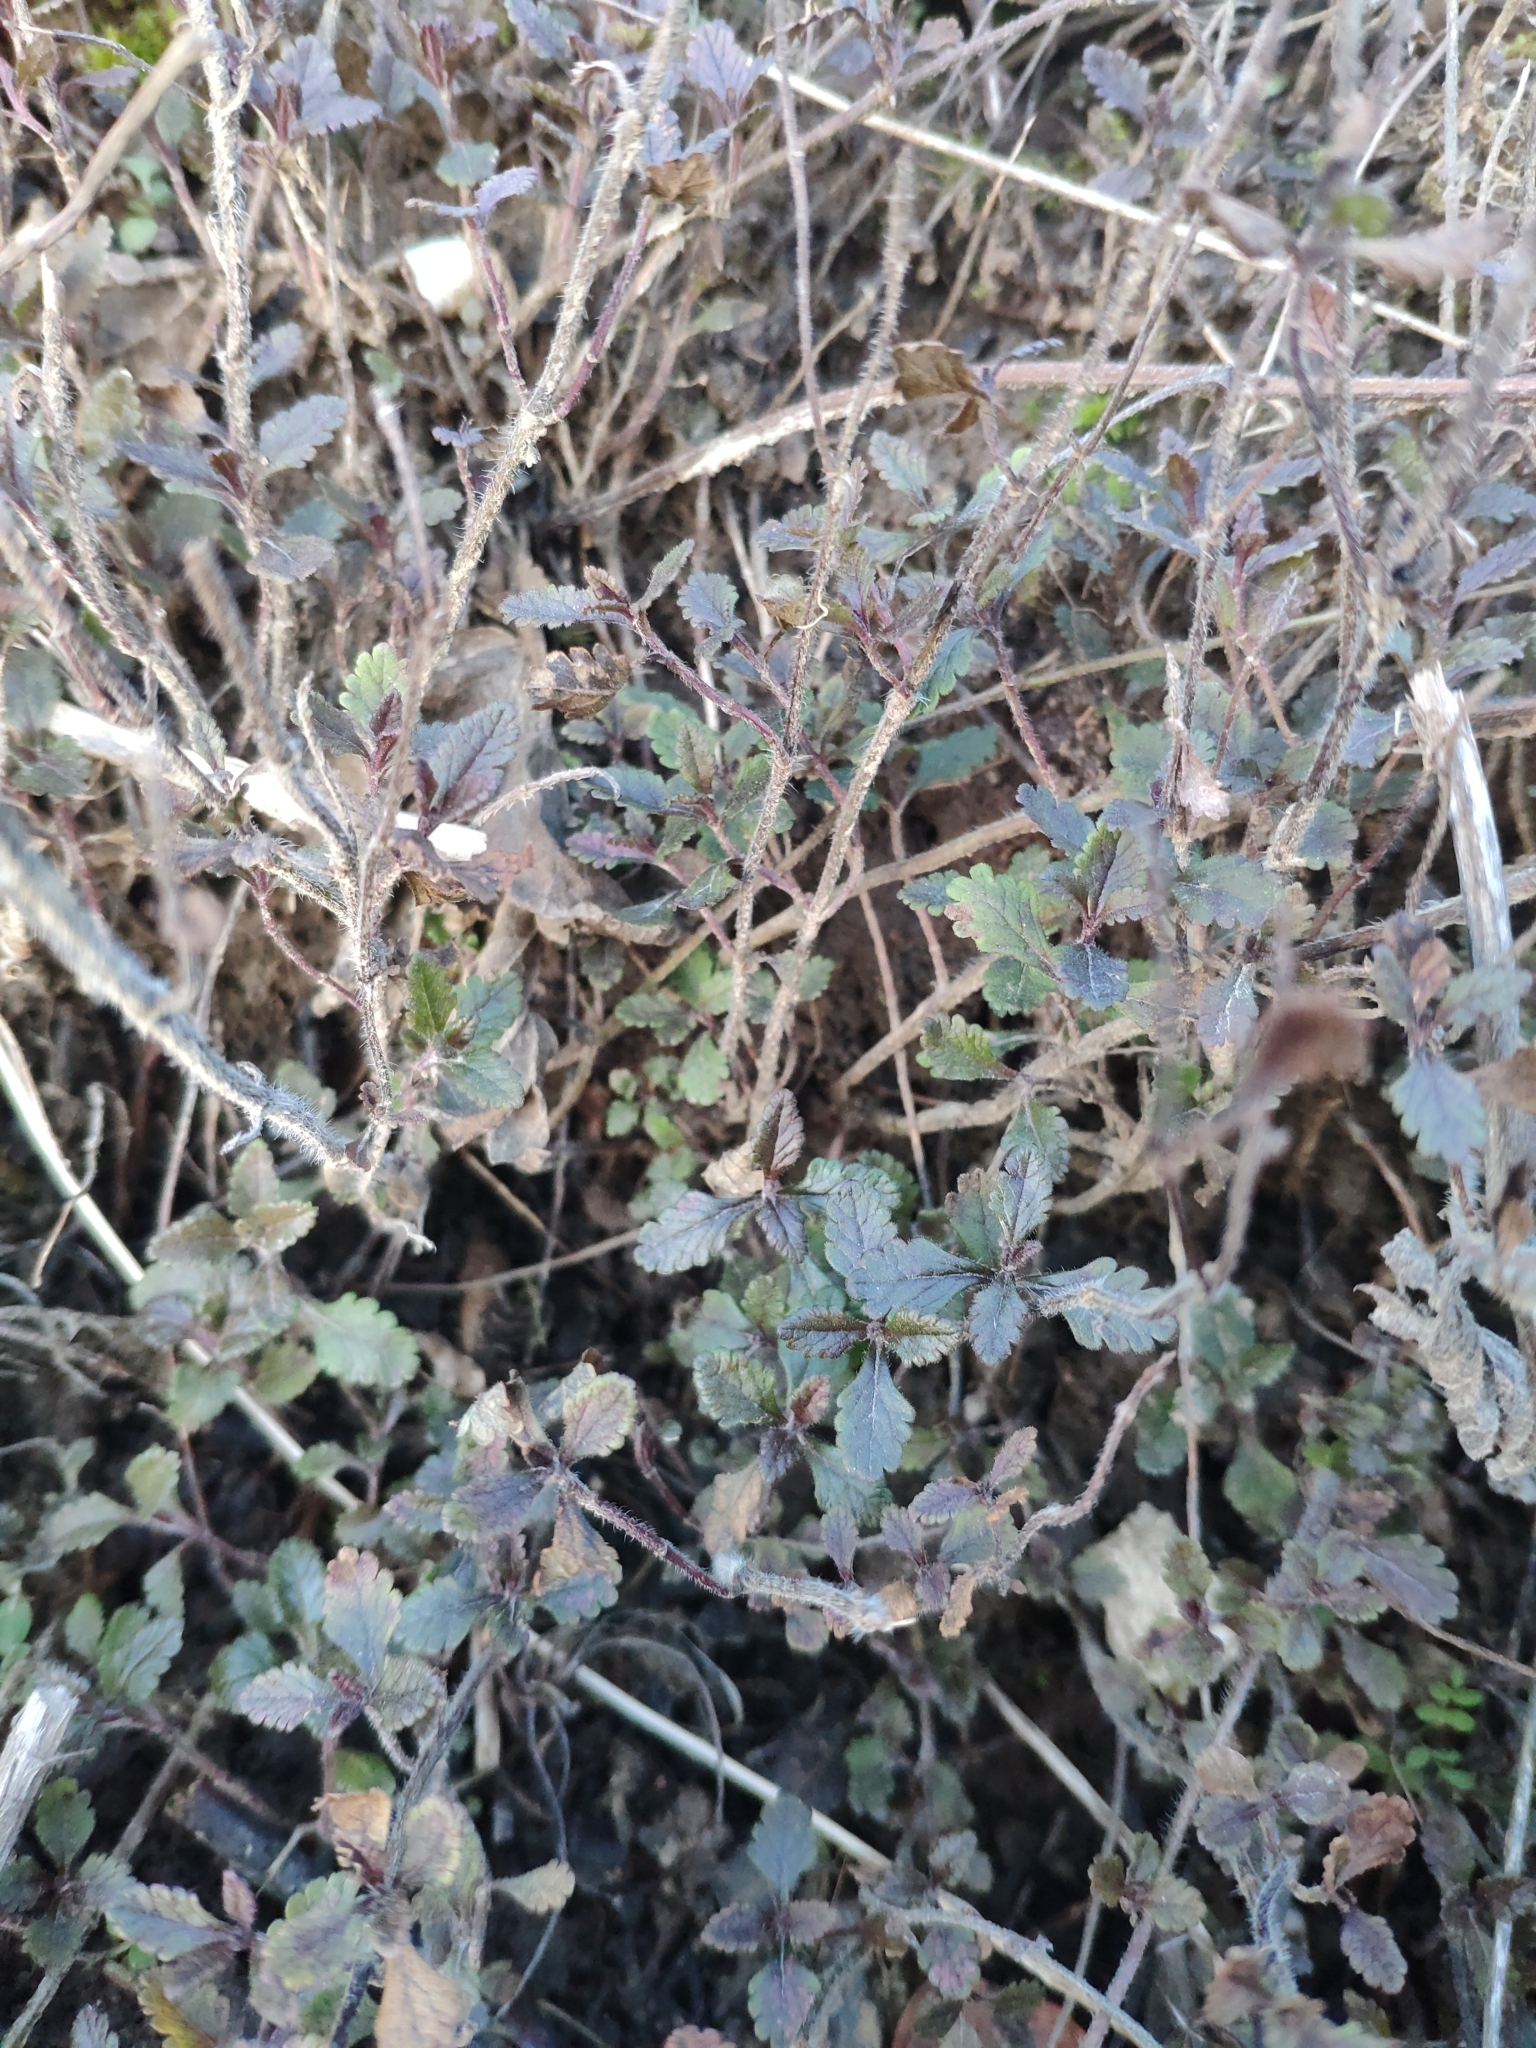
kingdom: Plantae
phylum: Tracheophyta
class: Magnoliopsida
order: Lamiales
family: Lamiaceae
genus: Teucrium
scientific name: Teucrium chamaedrys
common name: Wall germander
